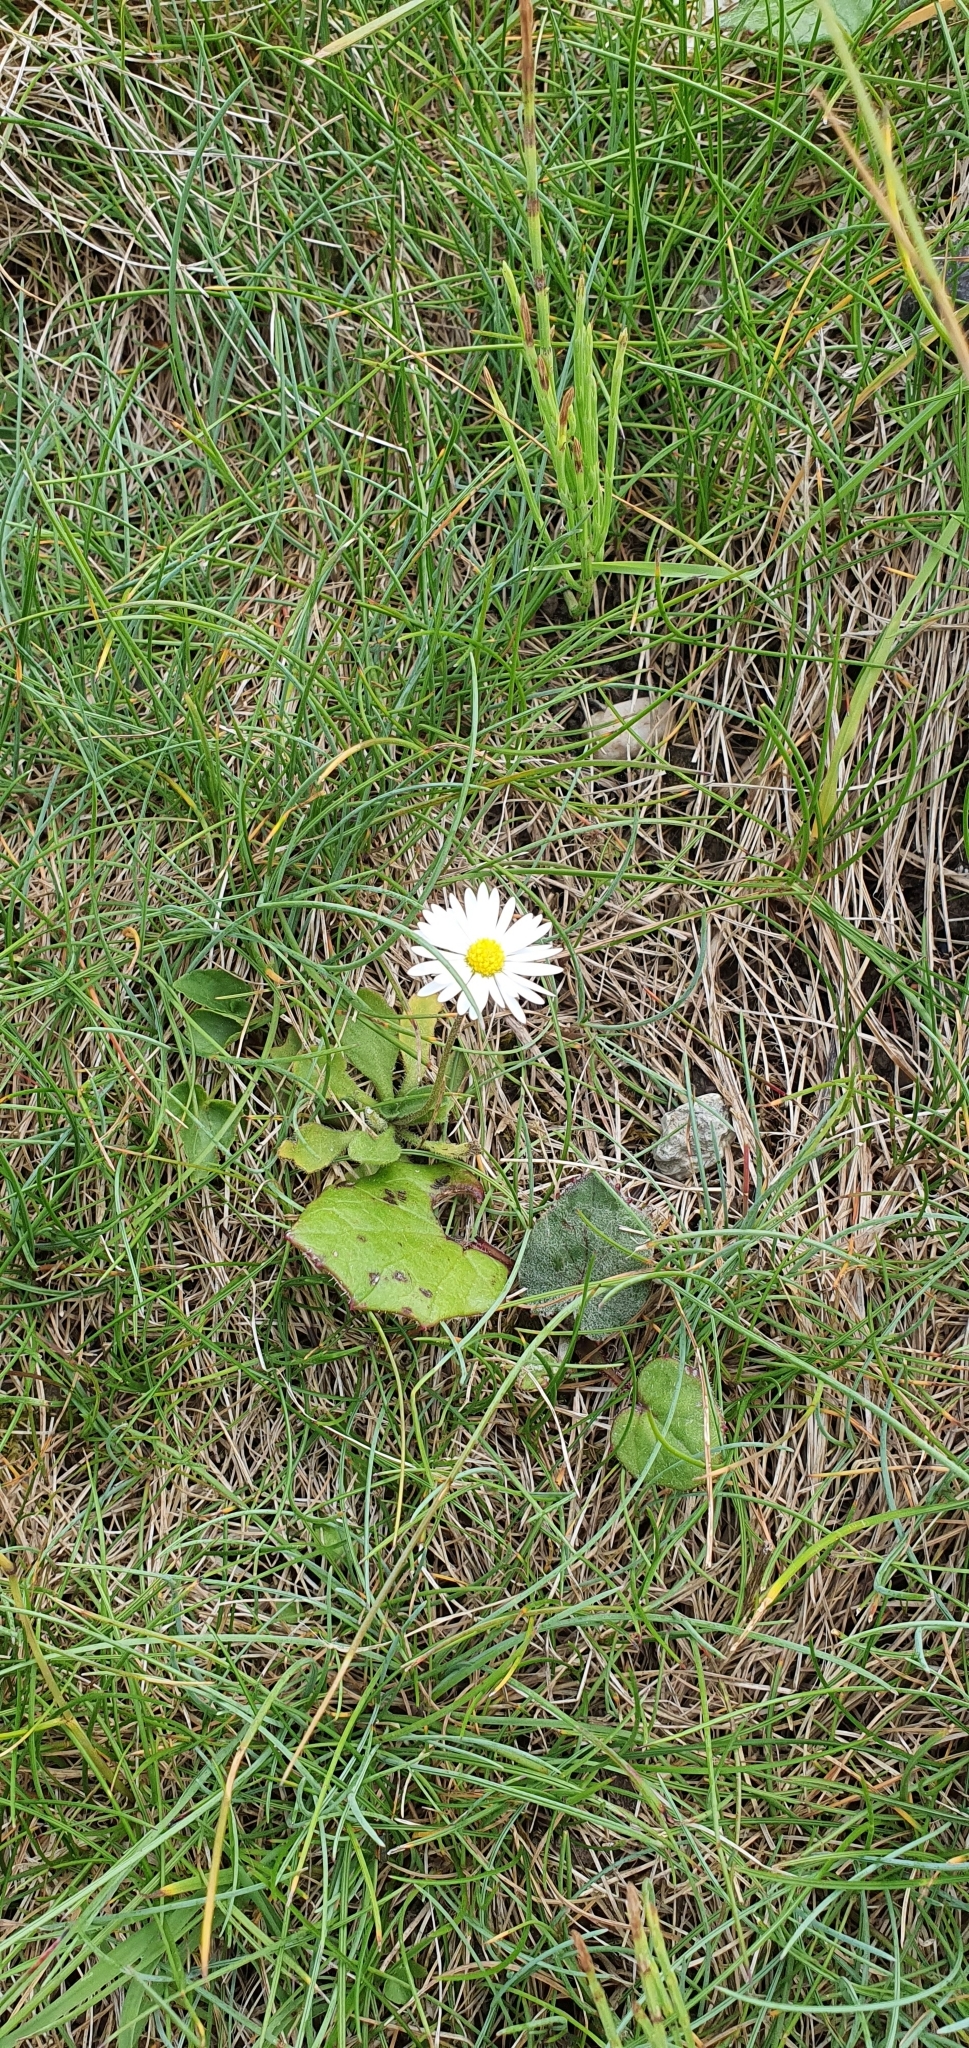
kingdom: Plantae
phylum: Tracheophyta
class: Magnoliopsida
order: Asterales
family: Asteraceae
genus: Bellis
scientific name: Bellis perennis
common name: Lawndaisy
